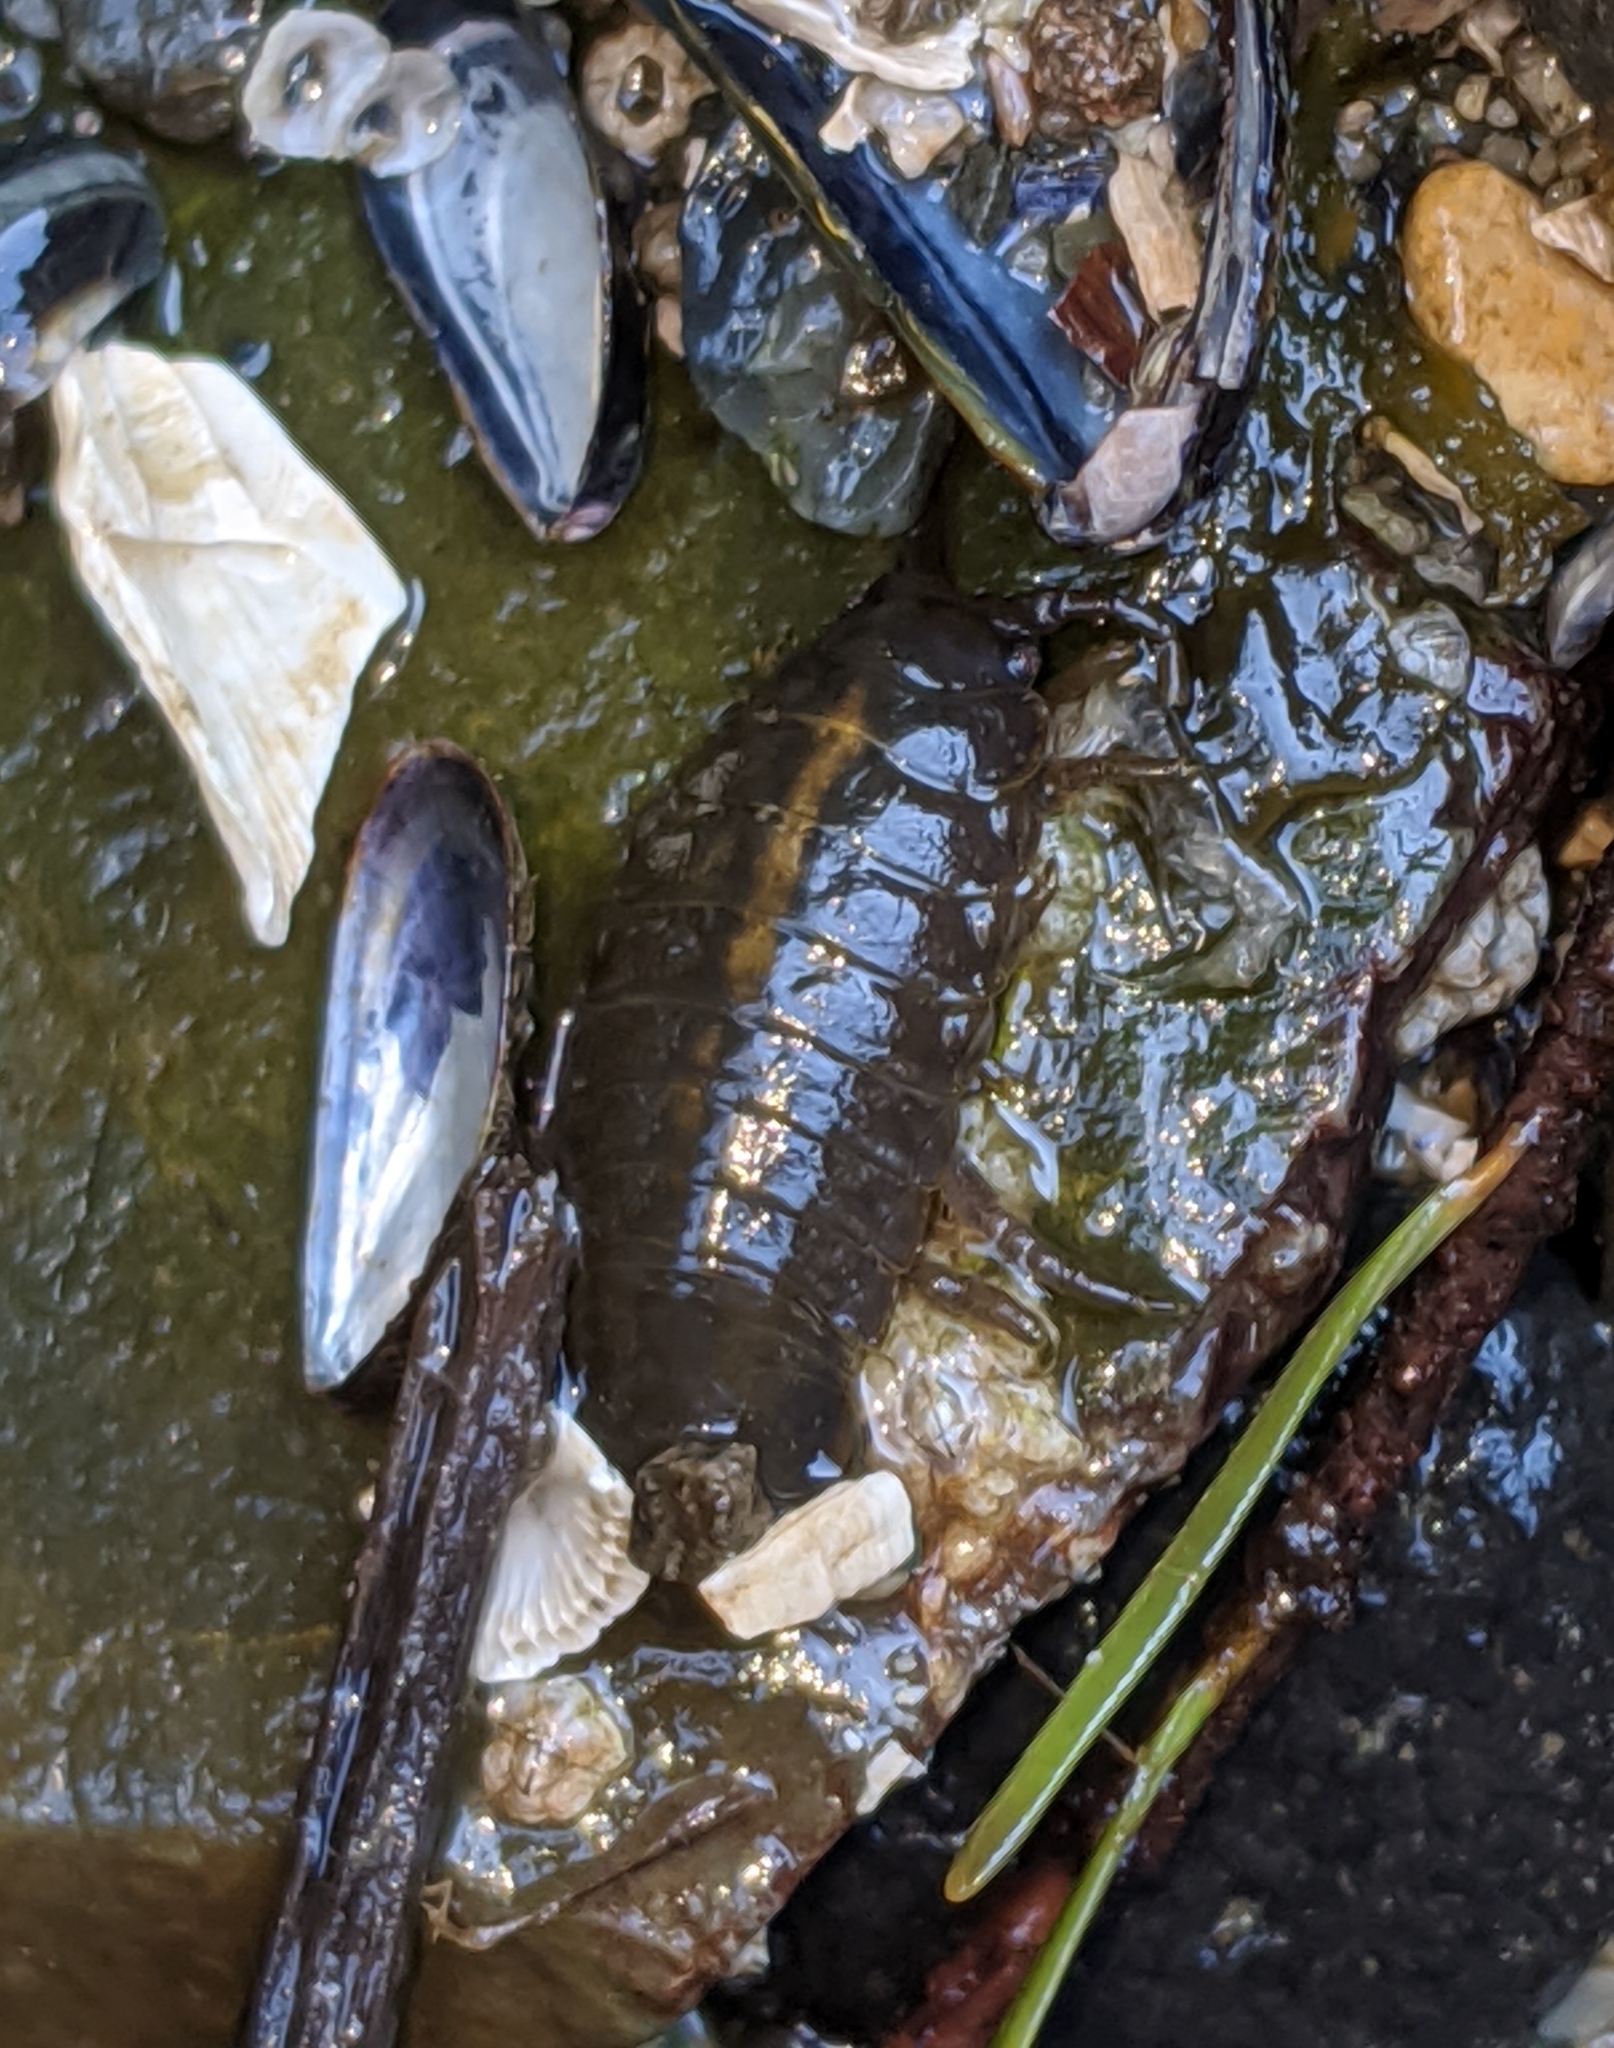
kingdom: Animalia
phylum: Arthropoda
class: Malacostraca
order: Isopoda
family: Idoteidae
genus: Pentidotea
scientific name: Pentidotea wosnesenskii
